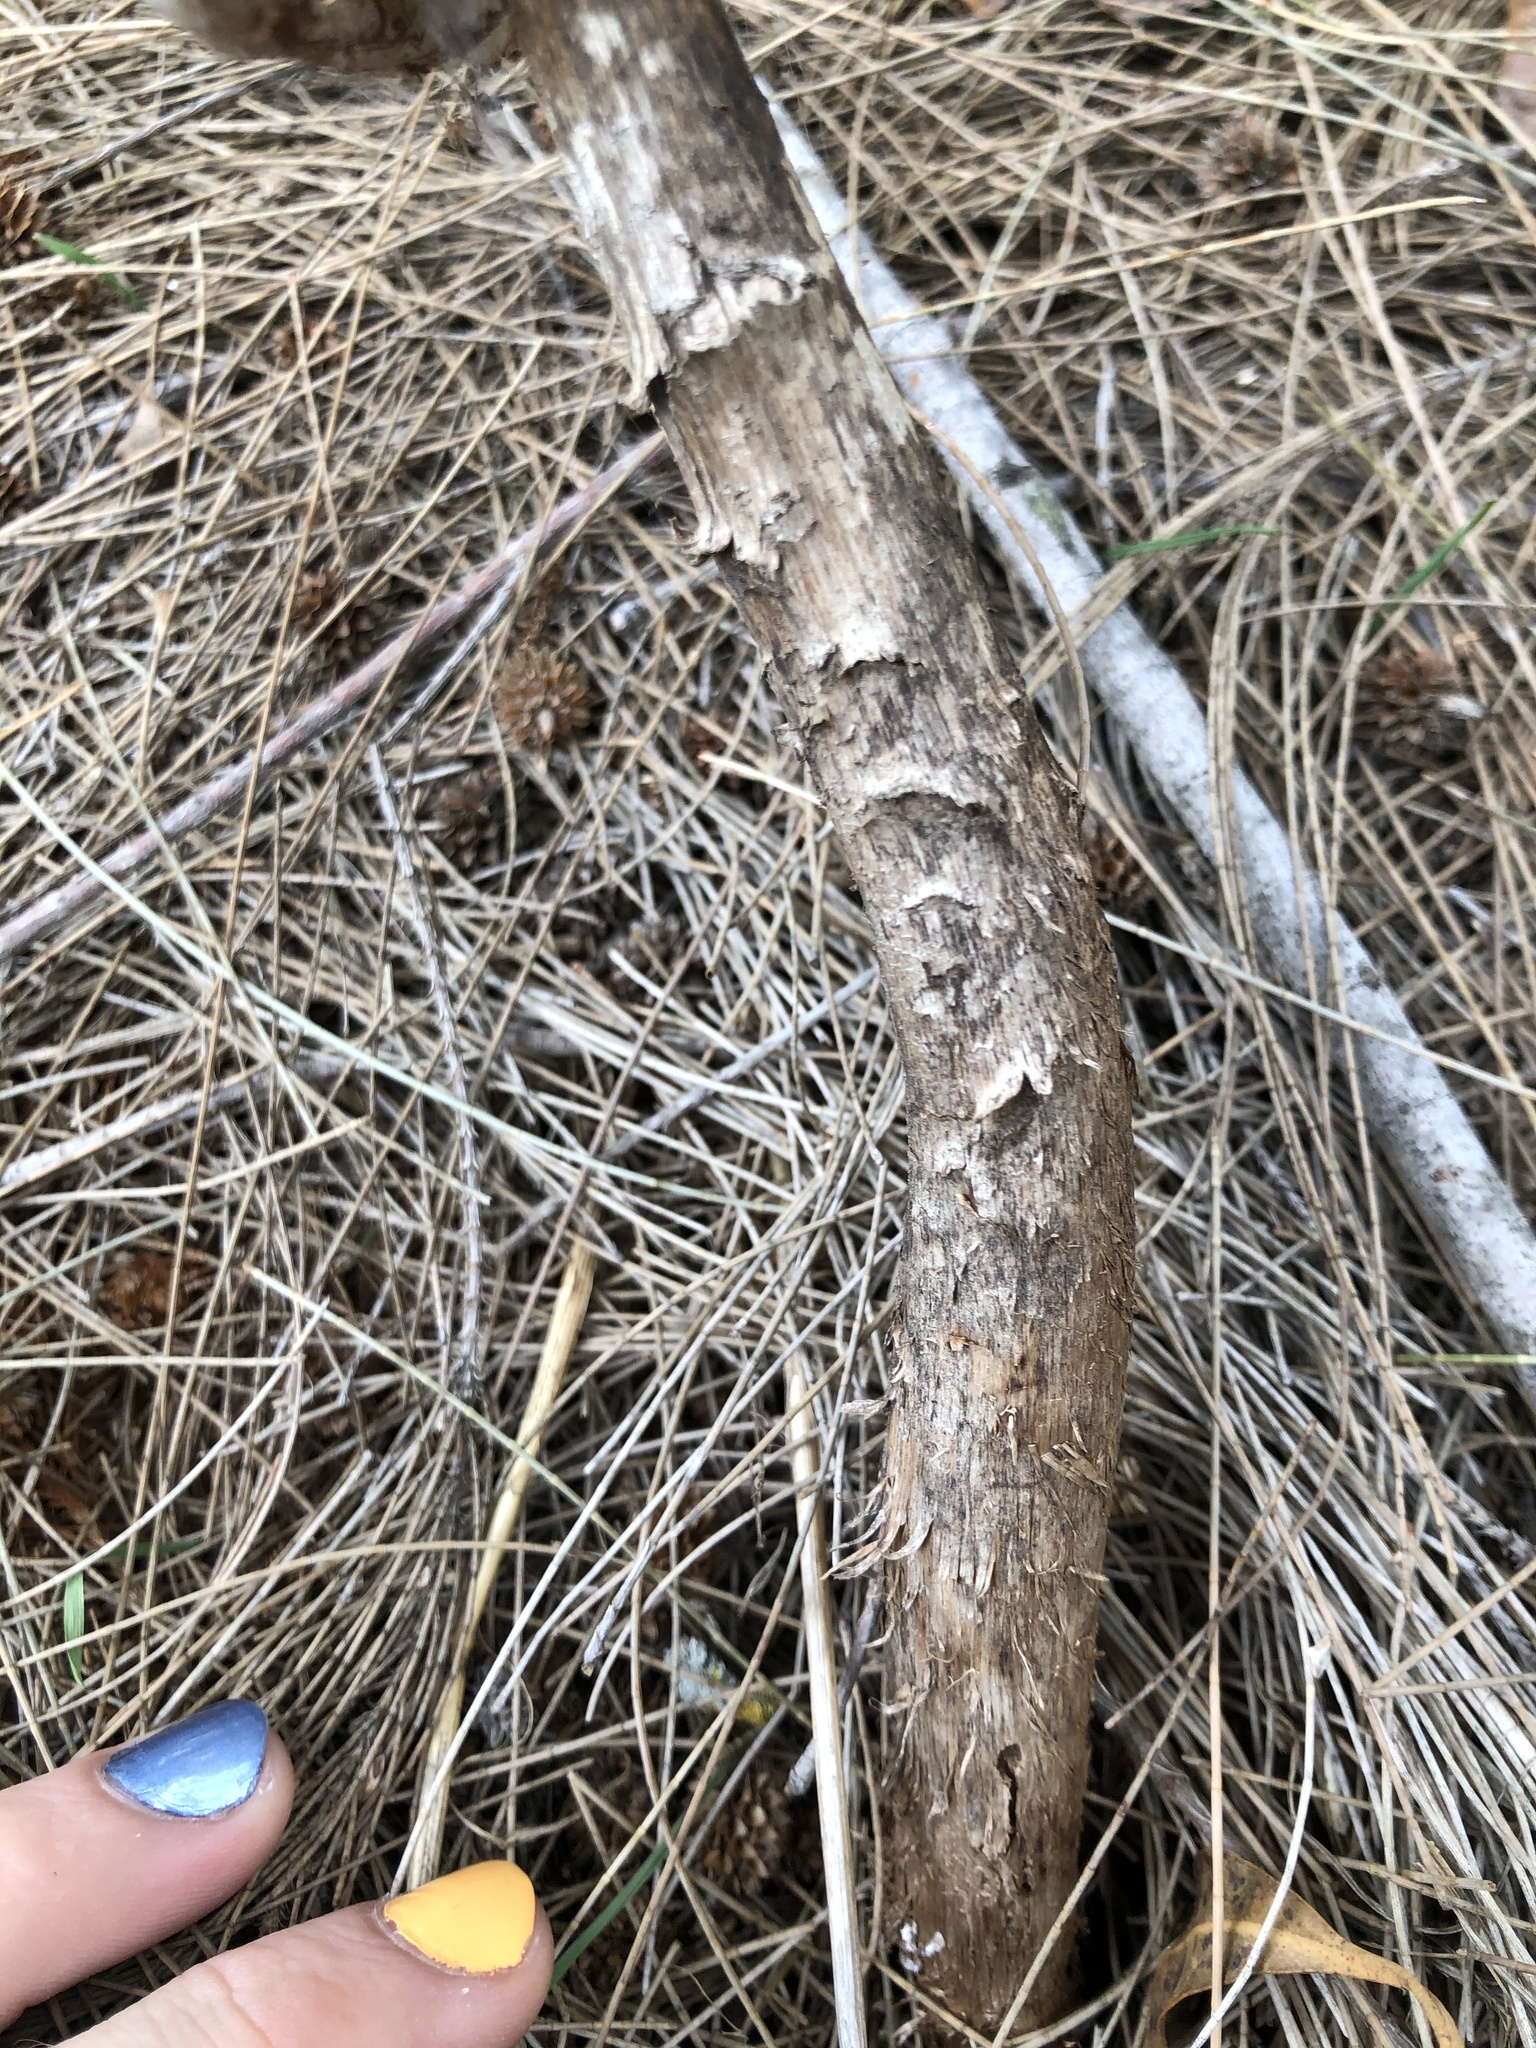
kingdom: Fungi
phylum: Basidiomycota
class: Agaricomycetes
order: Agaricales
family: Agaricaceae
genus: Battarrea
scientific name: Battarrea phalloides
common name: Sandy stiltball
